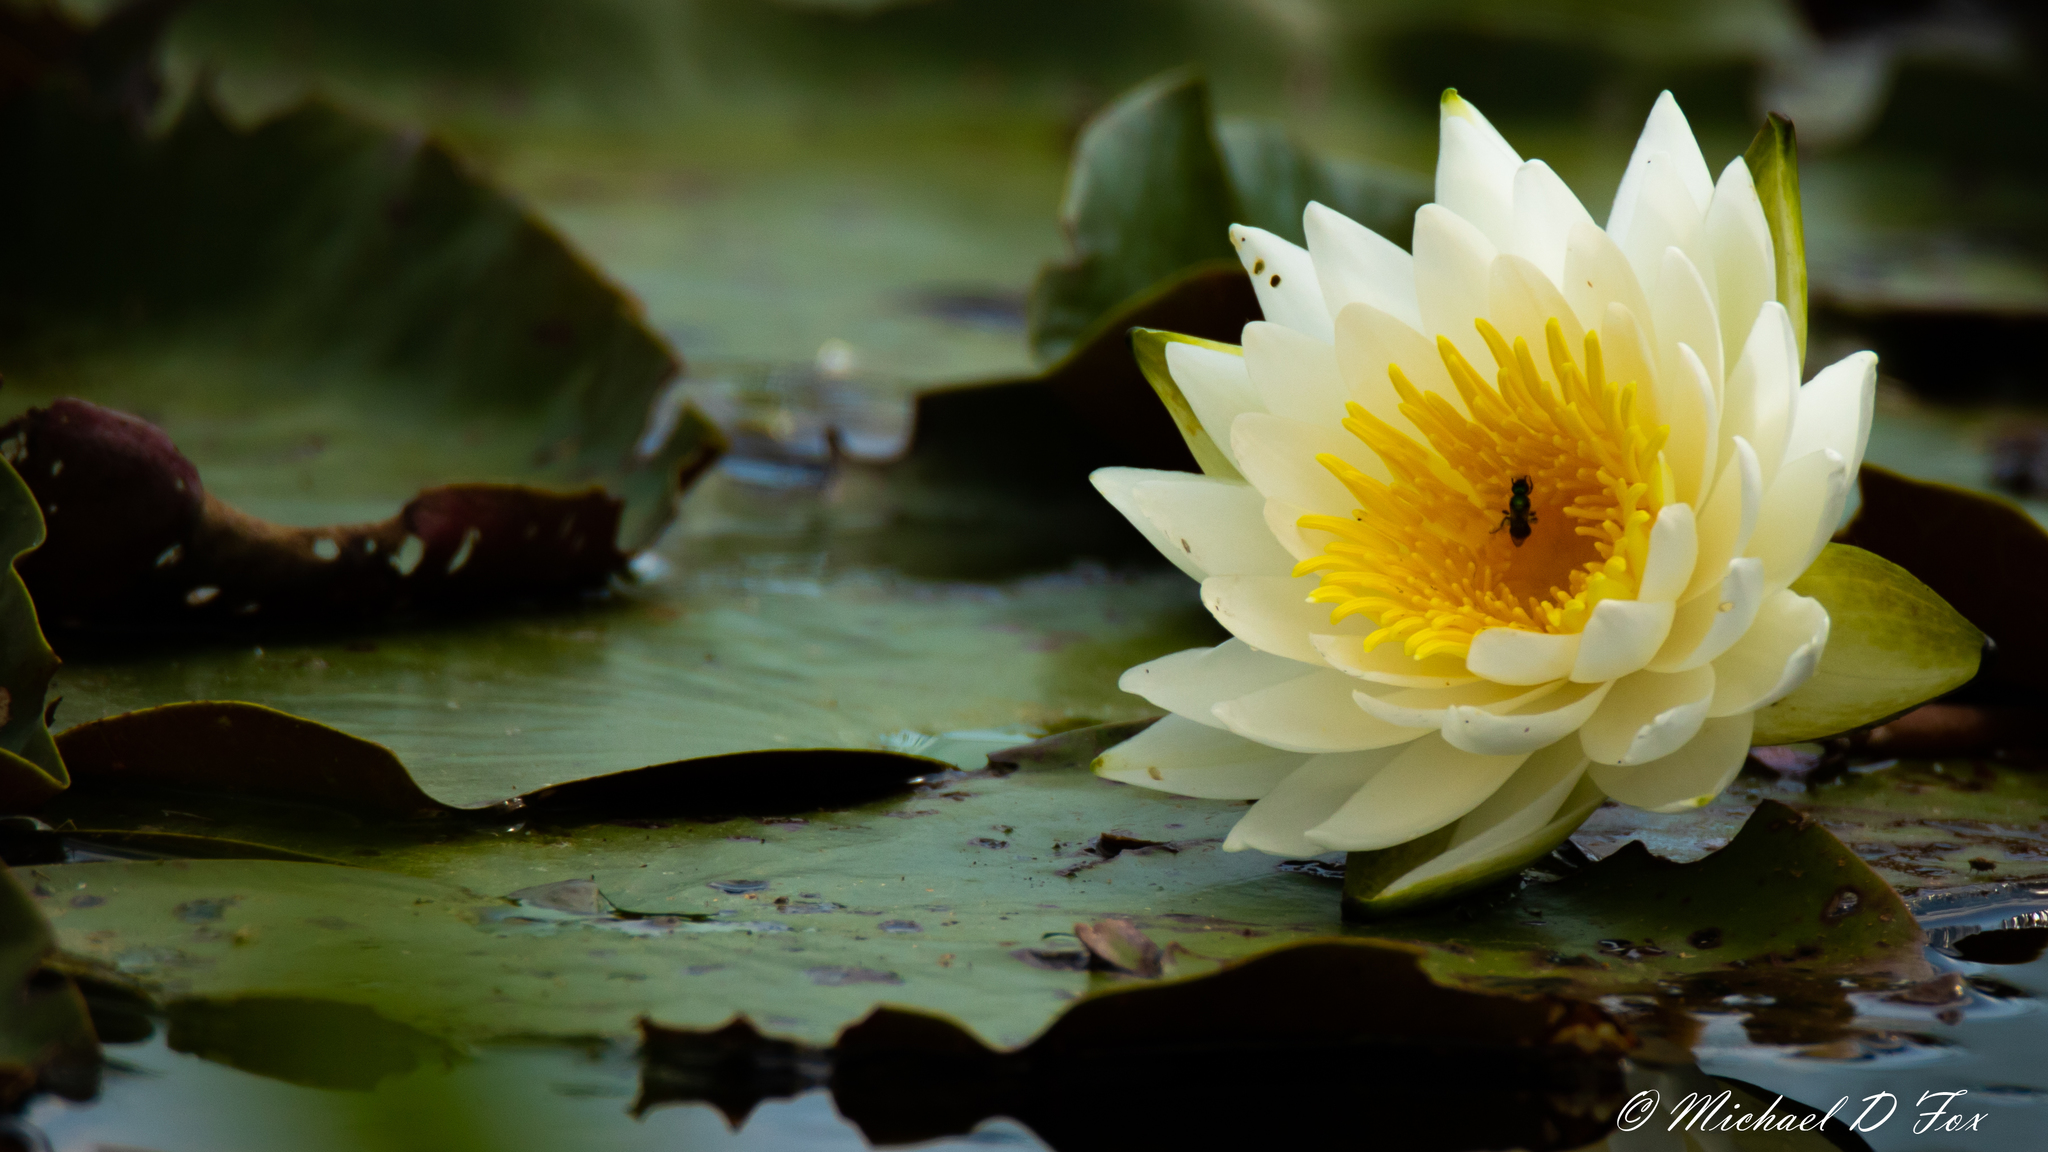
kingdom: Plantae
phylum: Tracheophyta
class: Magnoliopsida
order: Nymphaeales
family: Nymphaeaceae
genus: Nymphaea
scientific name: Nymphaea odorata
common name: Fragrant water-lily
